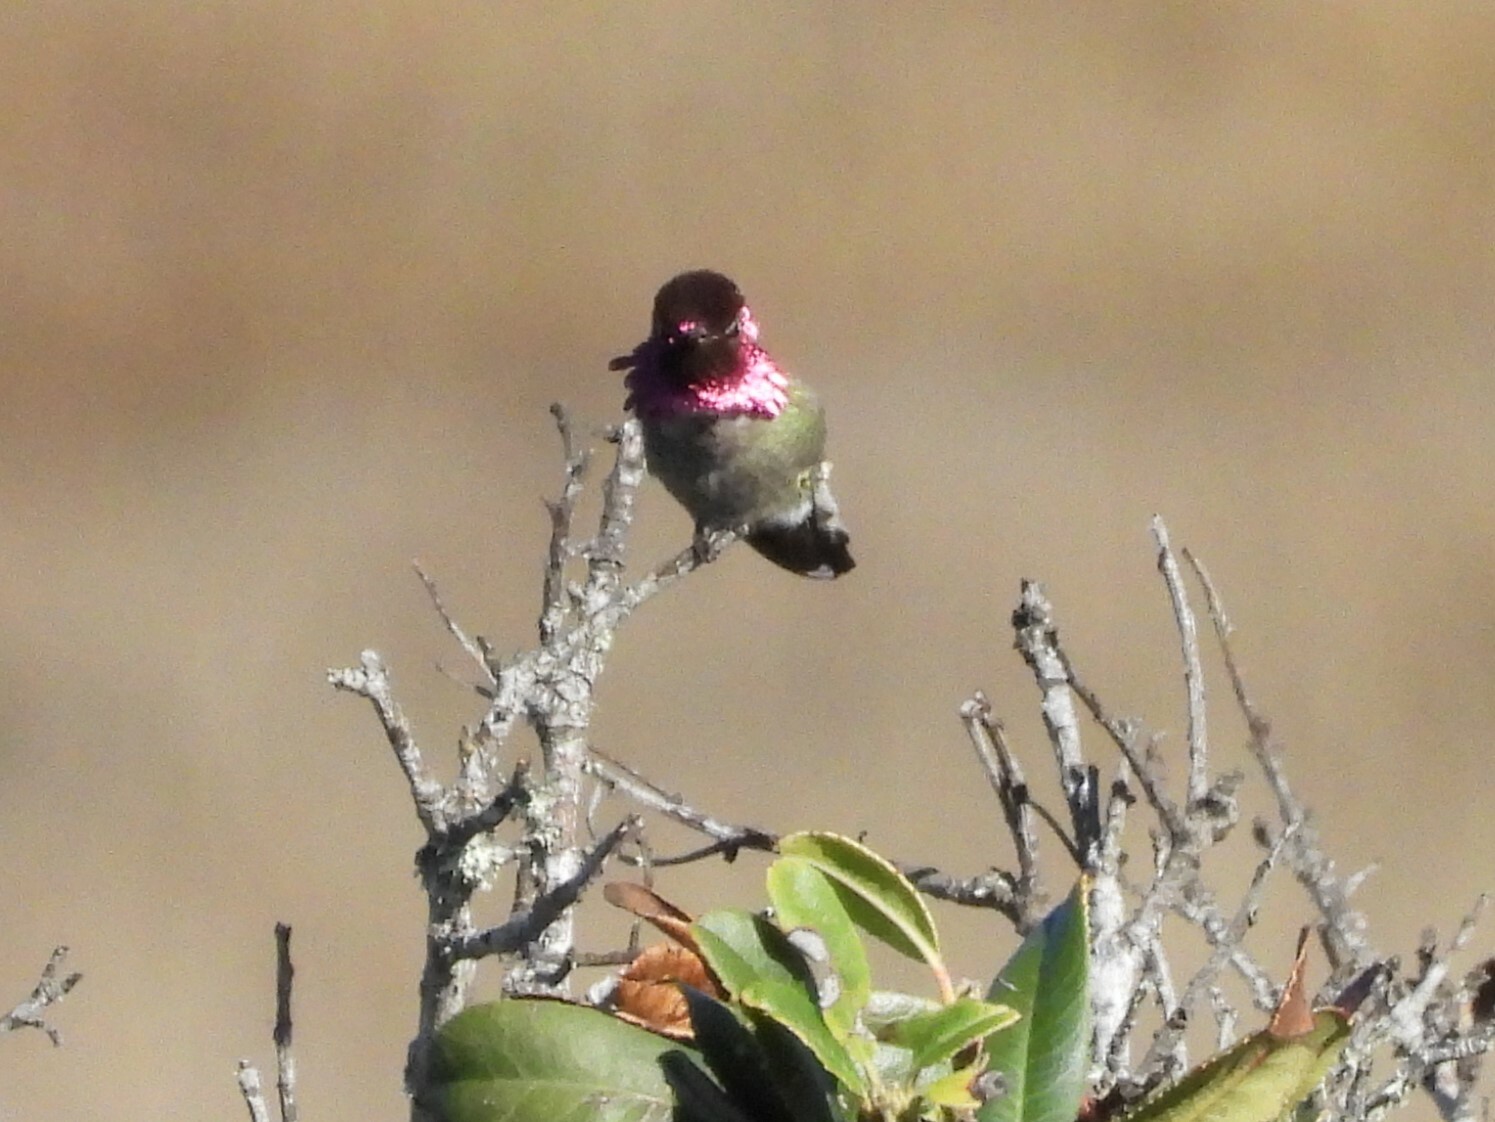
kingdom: Animalia
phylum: Chordata
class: Aves
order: Apodiformes
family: Trochilidae
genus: Calypte
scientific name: Calypte anna
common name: Anna's hummingbird
